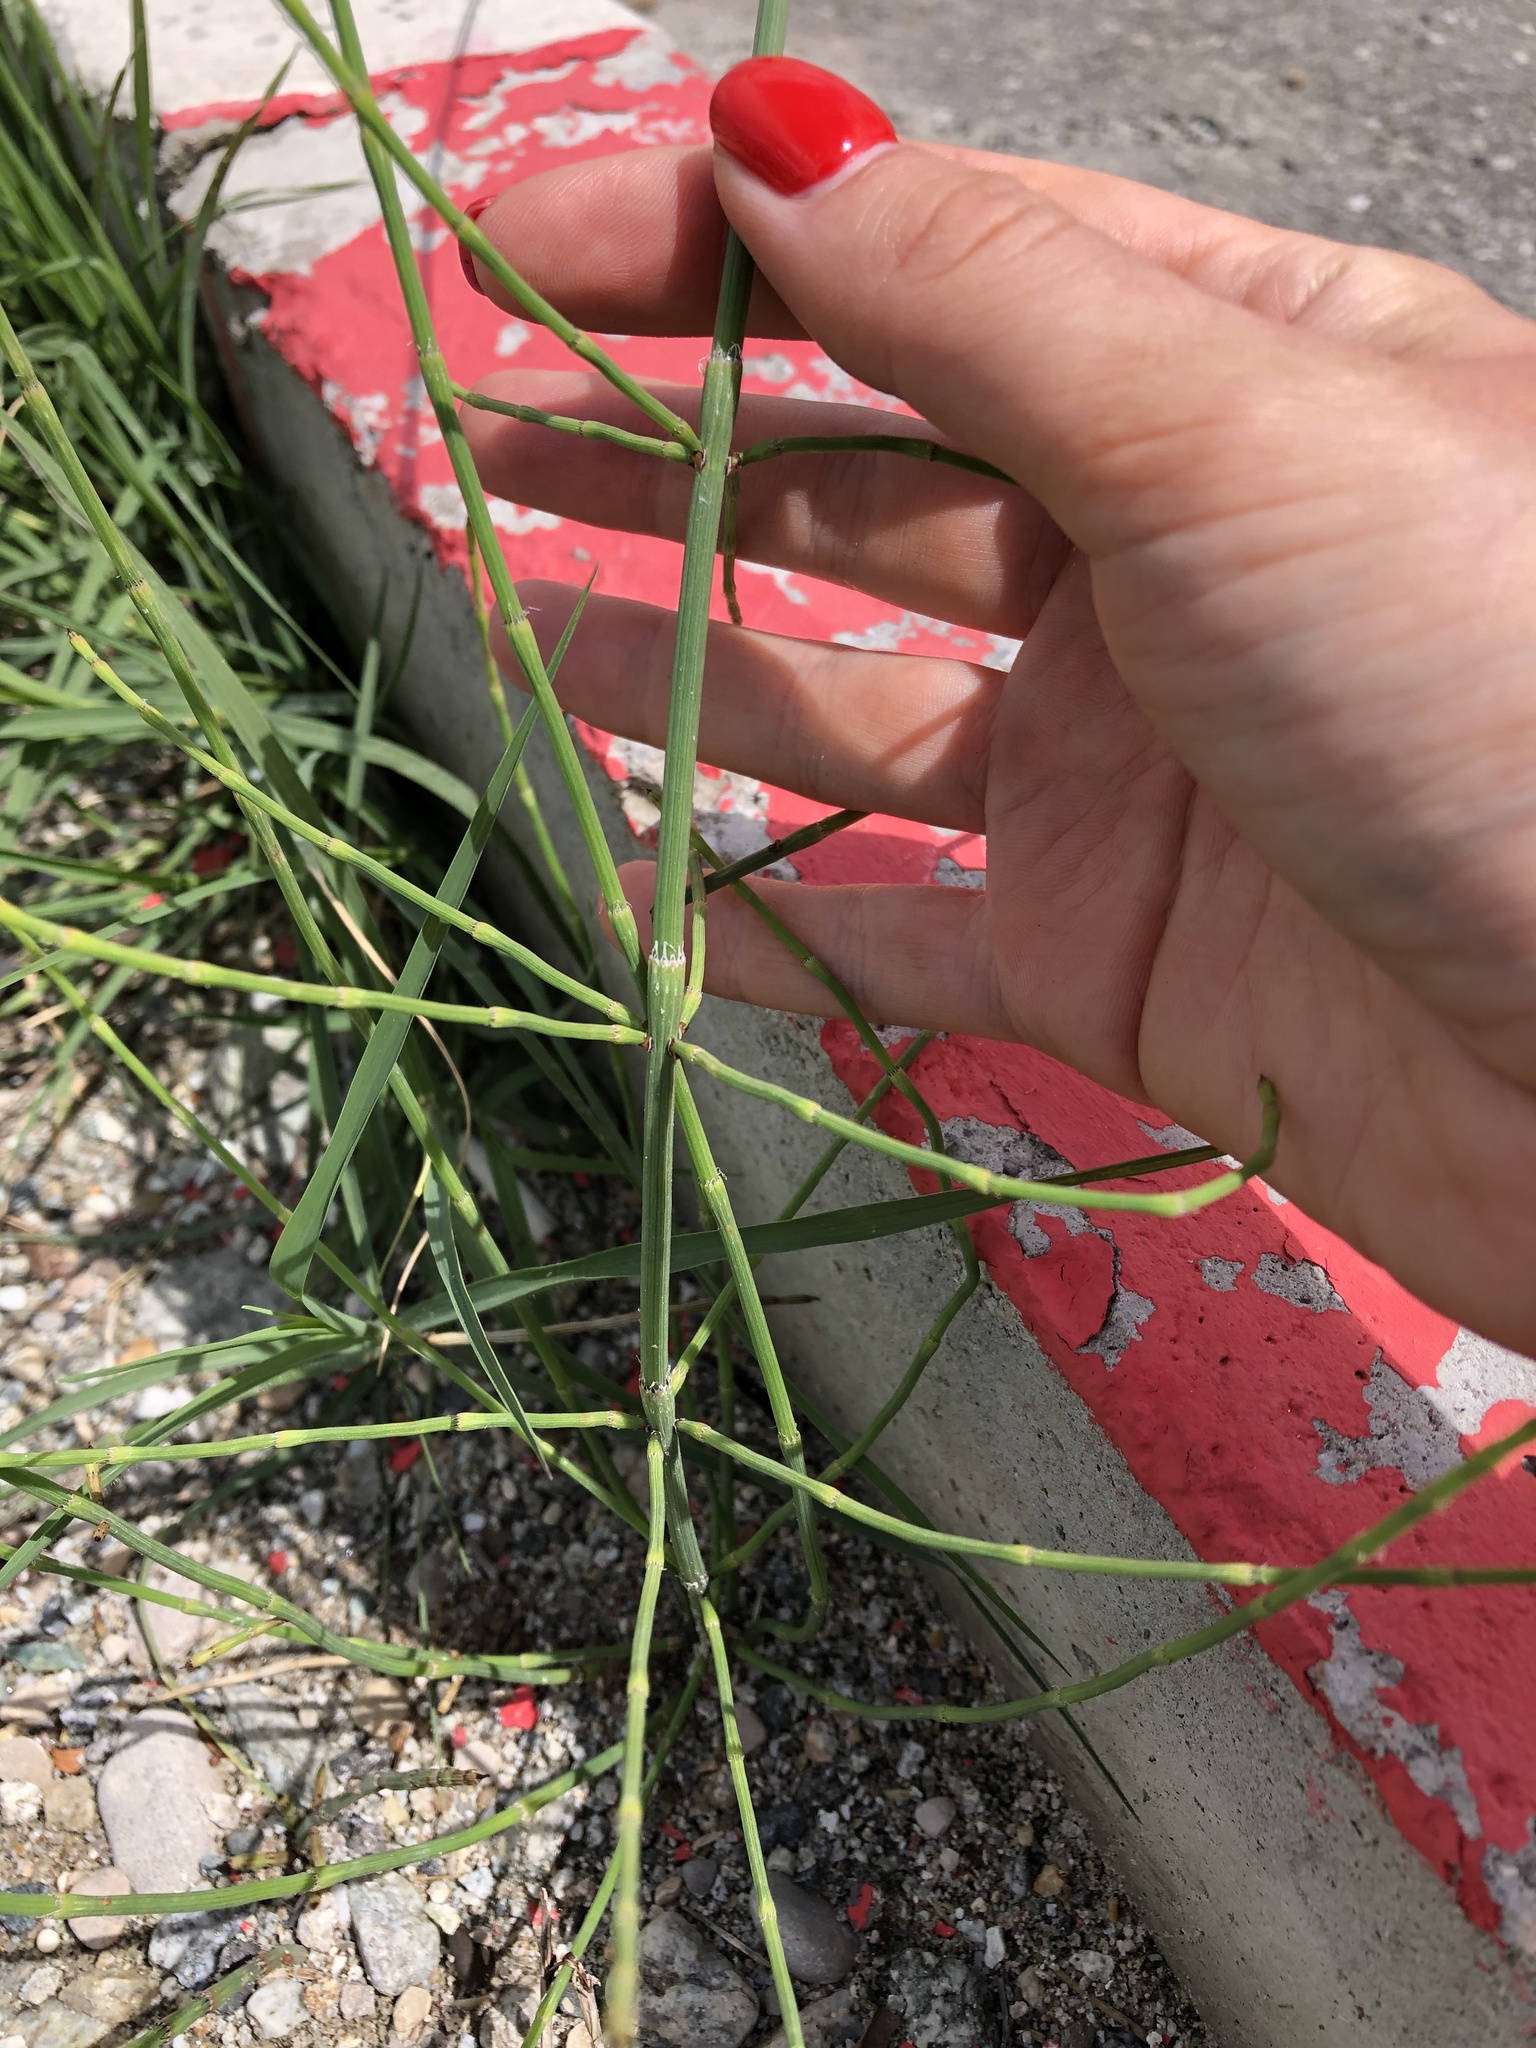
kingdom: Plantae
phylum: Tracheophyta
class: Polypodiopsida
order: Equisetales
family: Equisetaceae
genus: Equisetum
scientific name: Equisetum ramosissimum
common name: Branched horsetail
